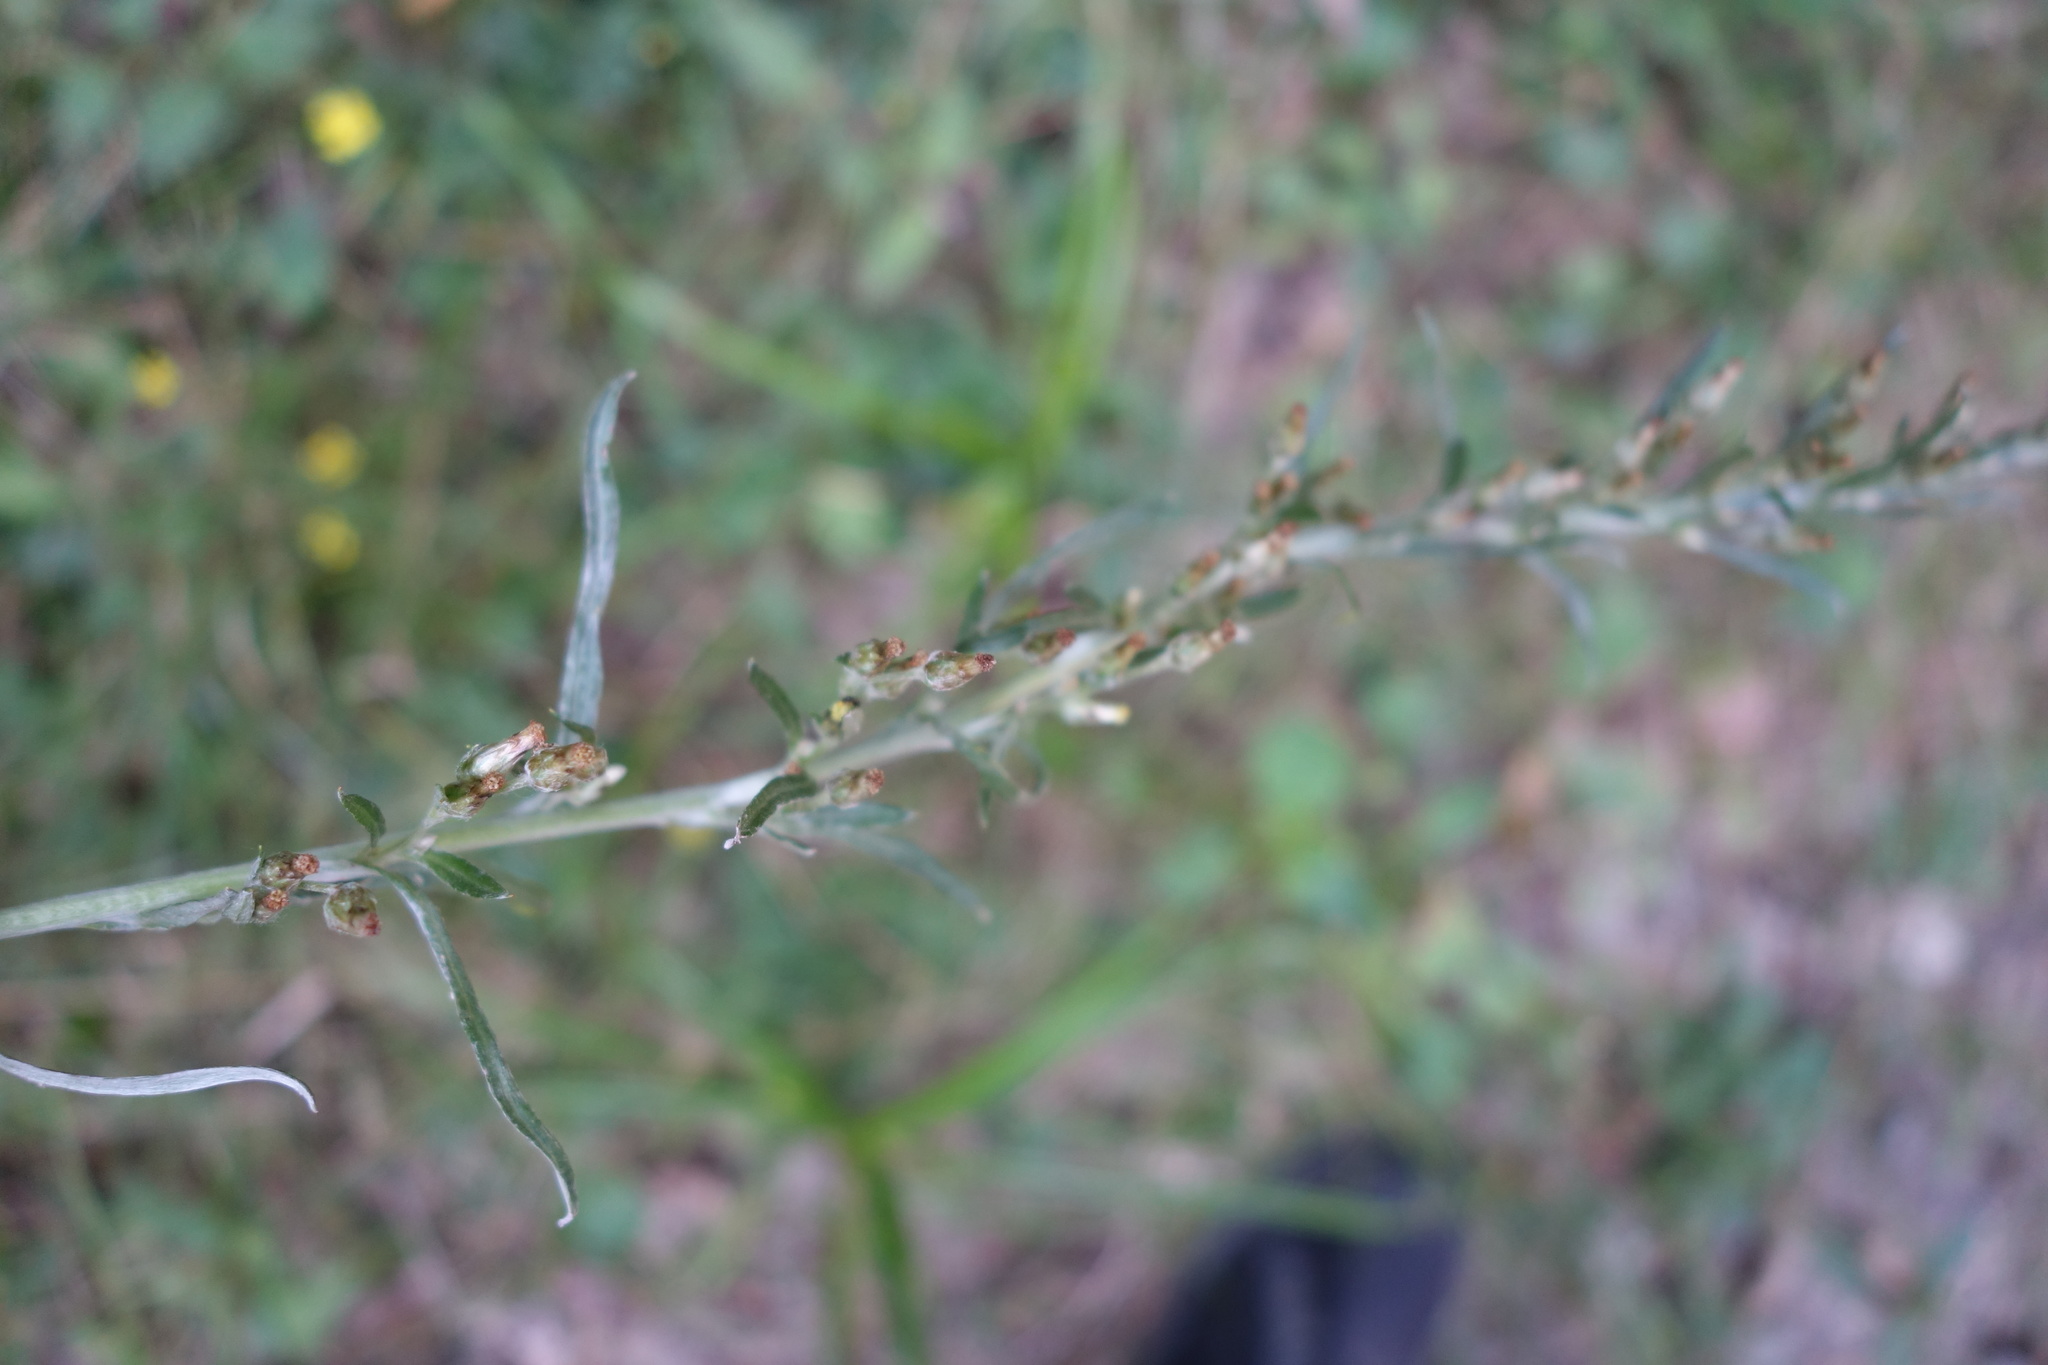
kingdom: Plantae
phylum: Tracheophyta
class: Magnoliopsida
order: Asterales
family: Asteraceae
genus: Omalotheca
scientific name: Omalotheca sylvatica
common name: Heath cudweed
